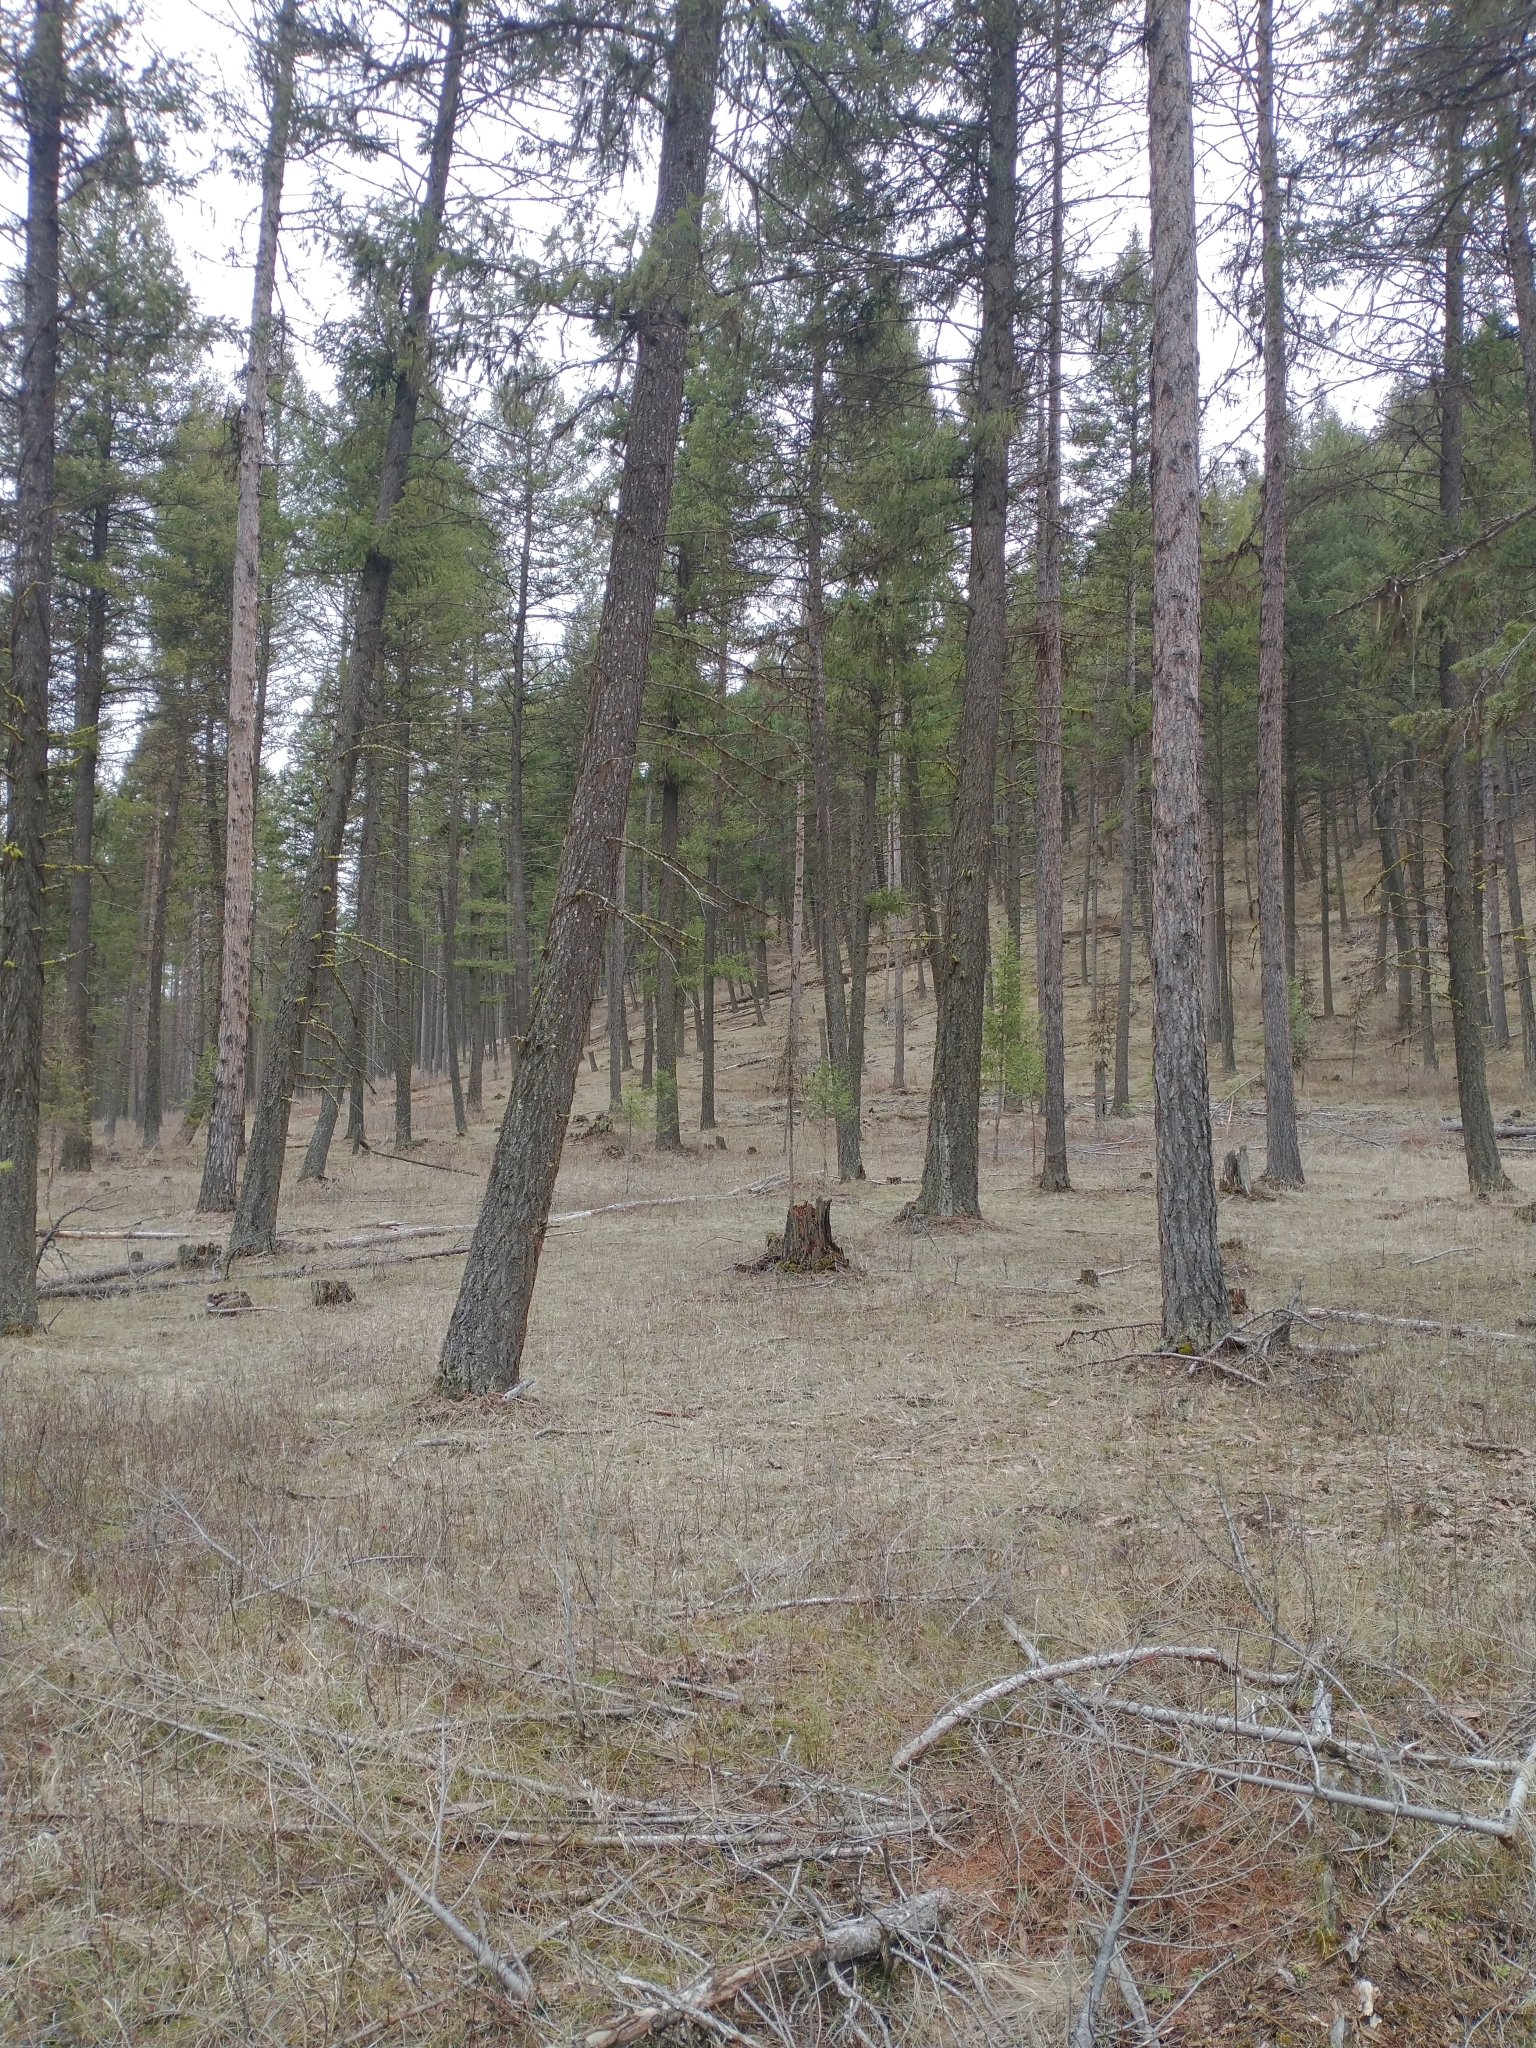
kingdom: Plantae
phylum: Tracheophyta
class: Pinopsida
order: Pinales
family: Pinaceae
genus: Pseudotsuga
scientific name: Pseudotsuga menziesii
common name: Douglas fir
